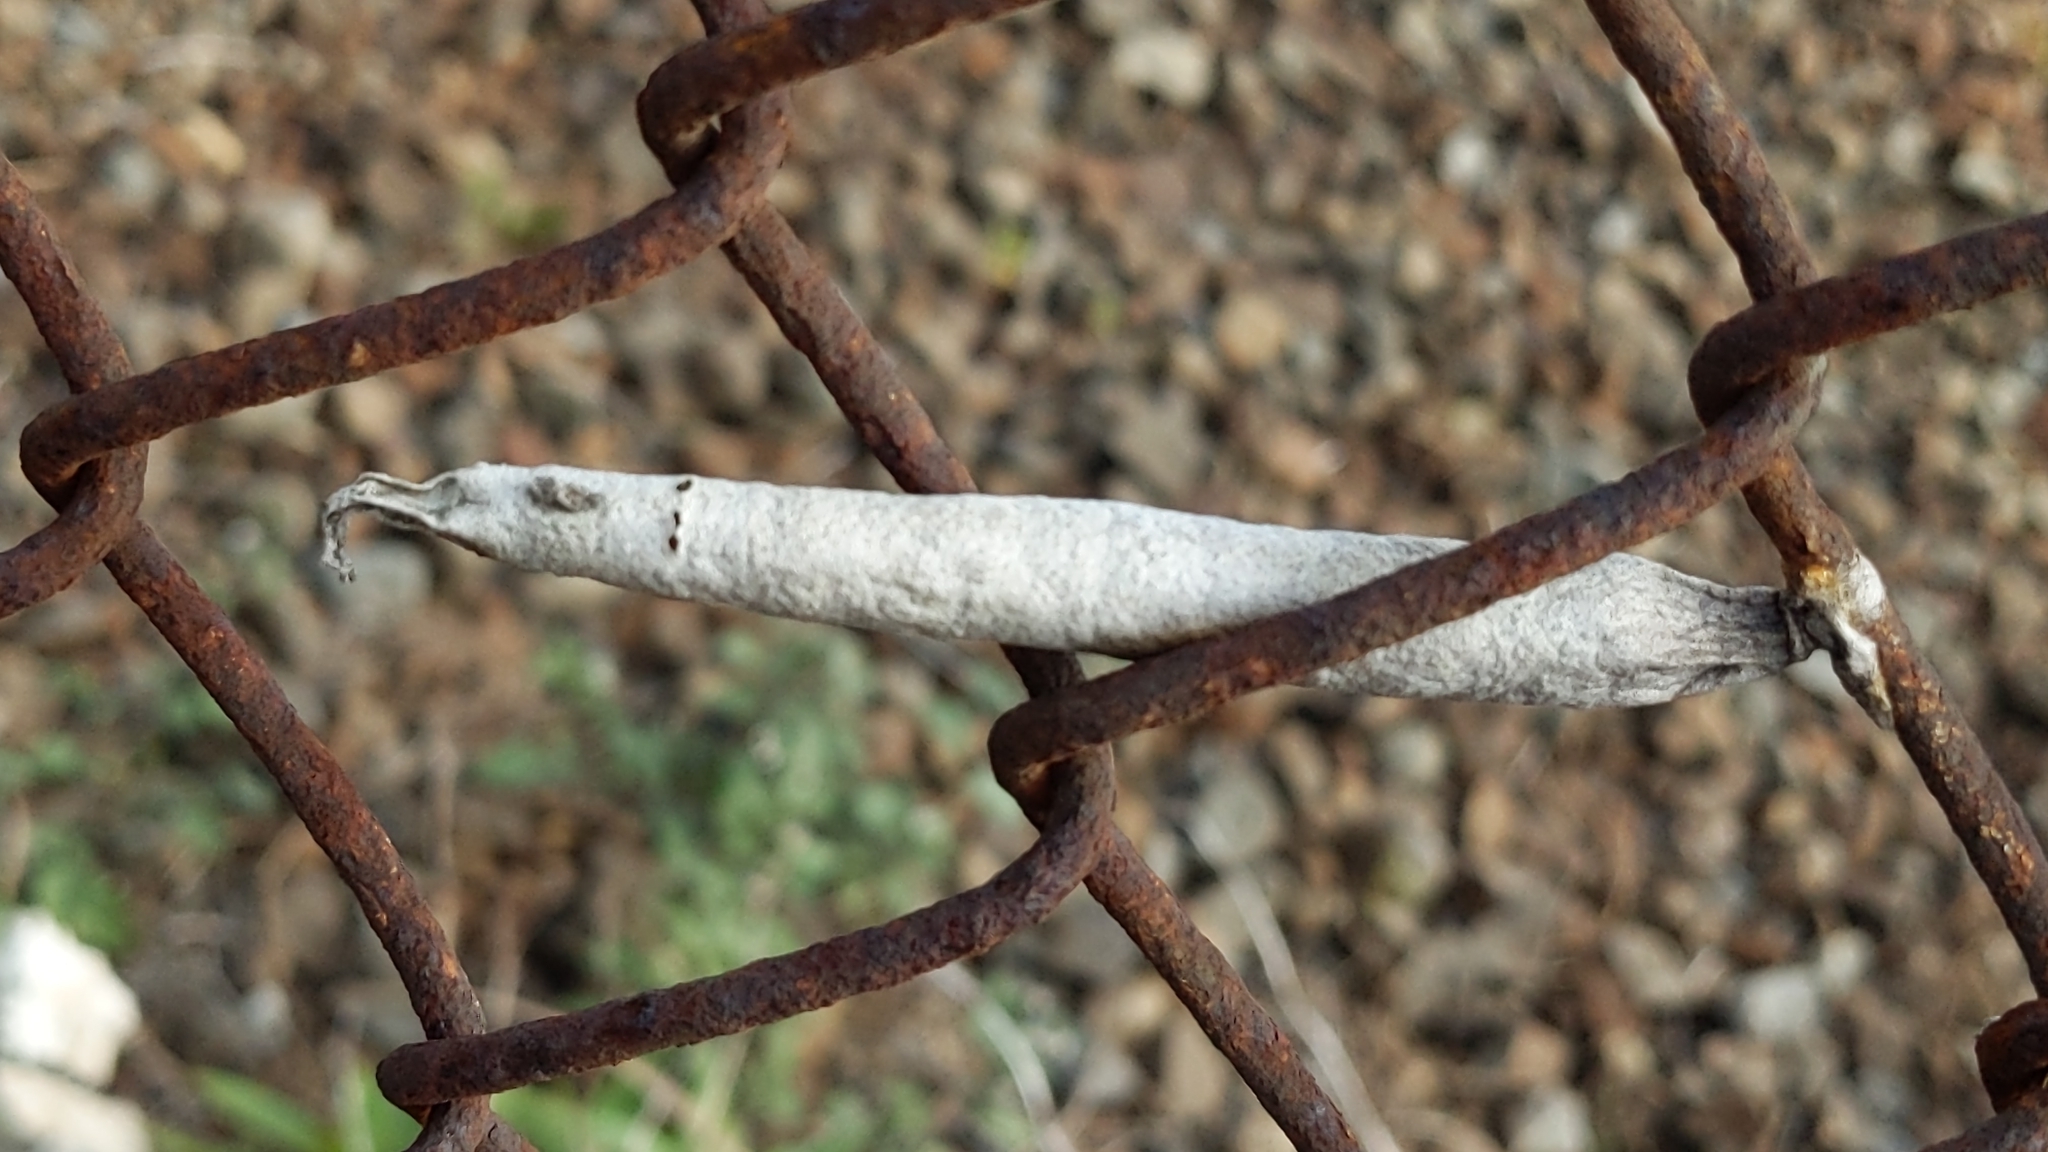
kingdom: Animalia
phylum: Arthropoda
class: Insecta
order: Lepidoptera
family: Psychidae
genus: Liothula
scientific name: Liothula omnivora
